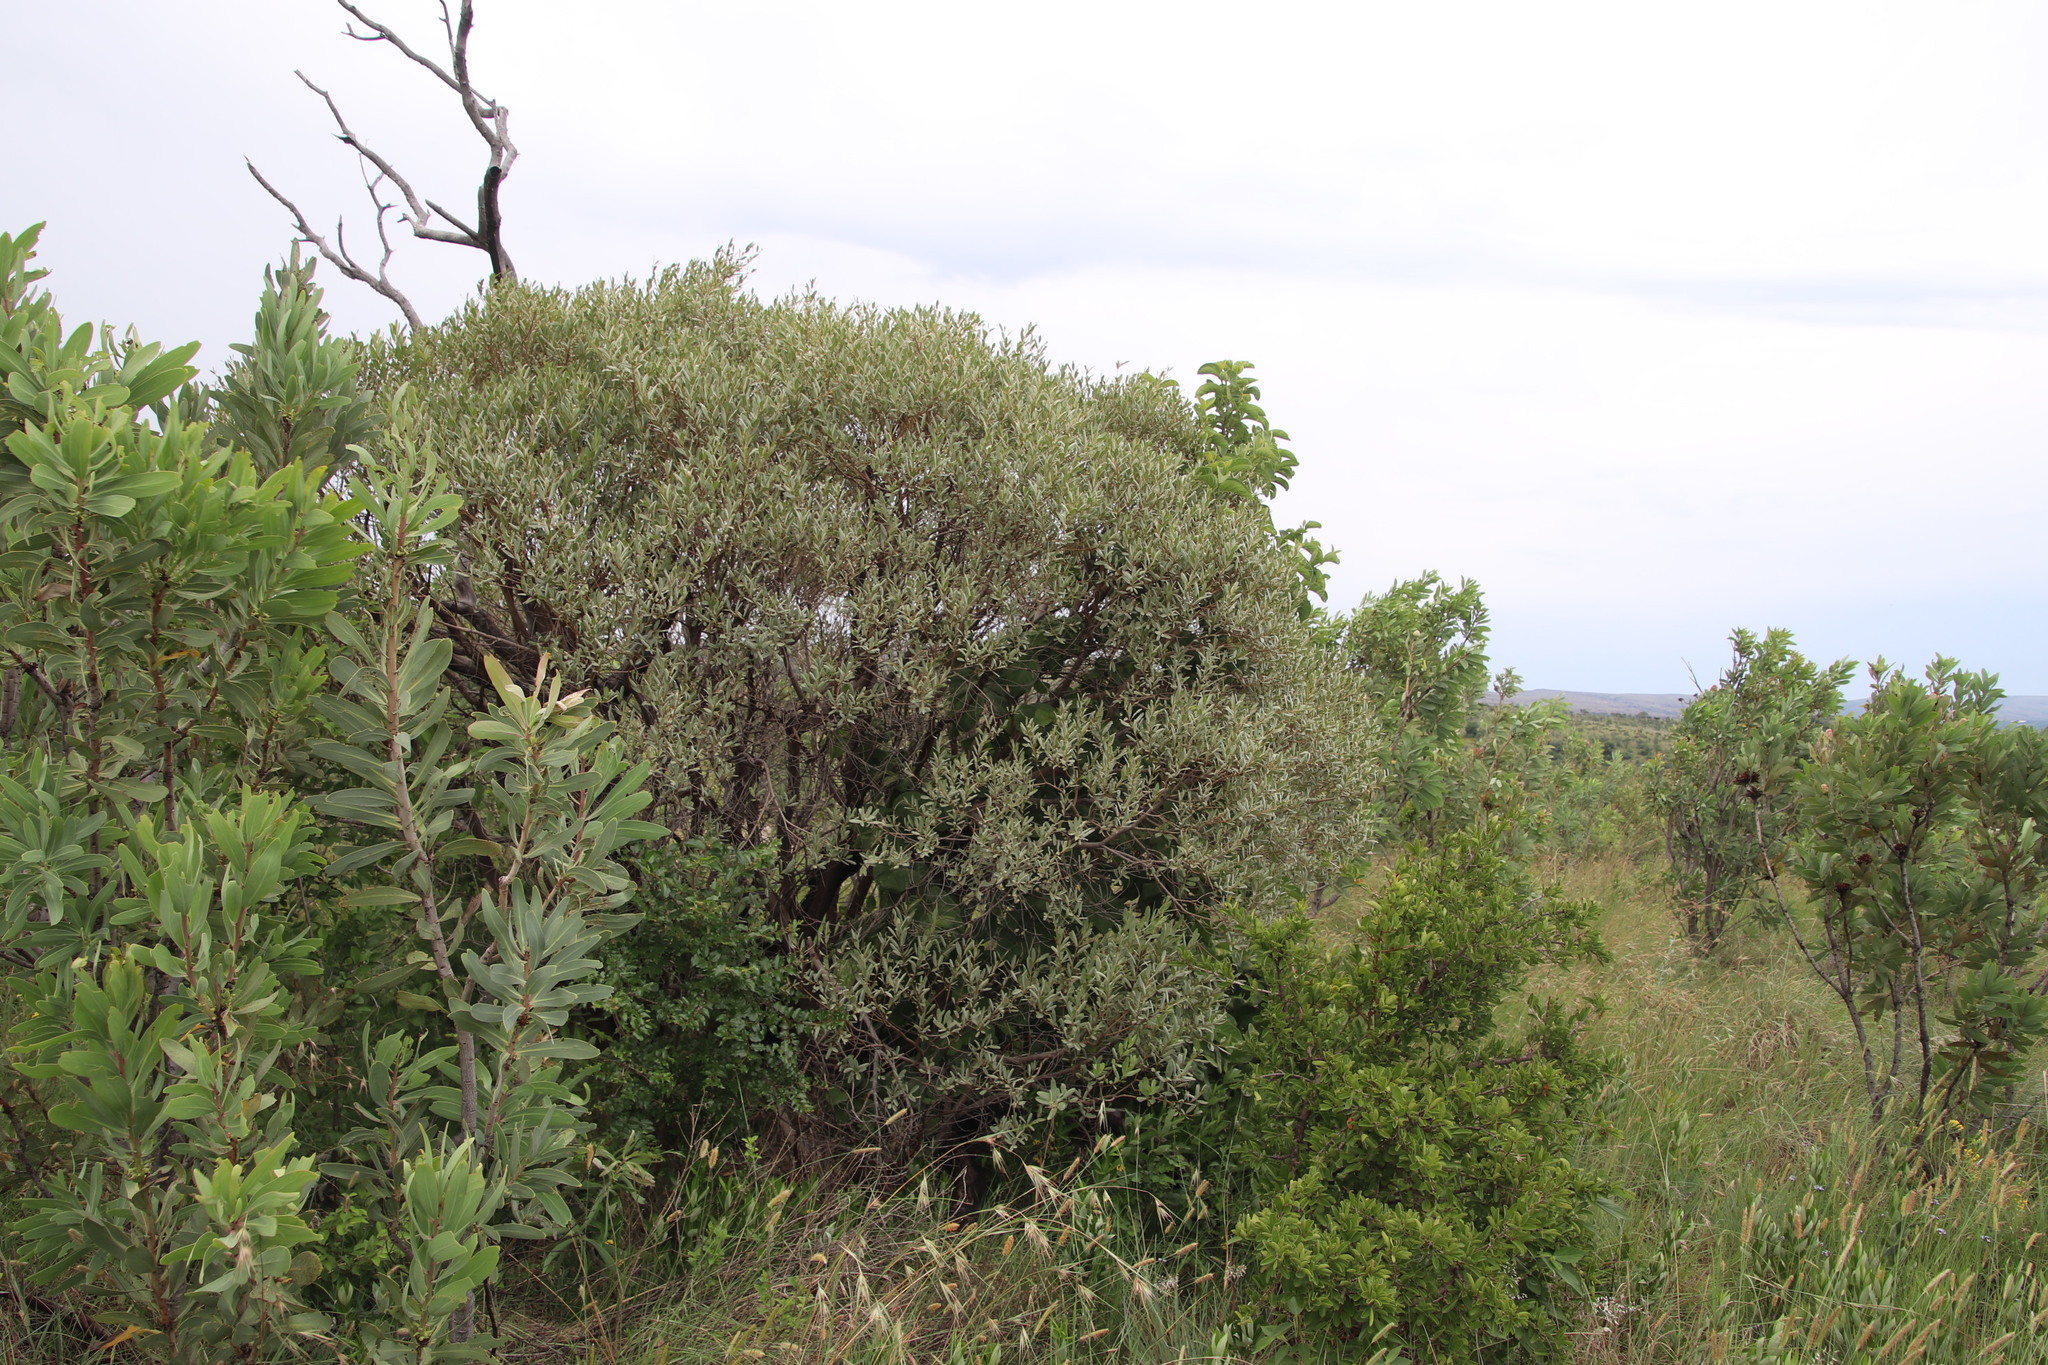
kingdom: Plantae
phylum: Tracheophyta
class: Magnoliopsida
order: Sapindales
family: Anacardiaceae
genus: Ozoroa
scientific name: Ozoroa paniculosa
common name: Bushveld ozoroa
